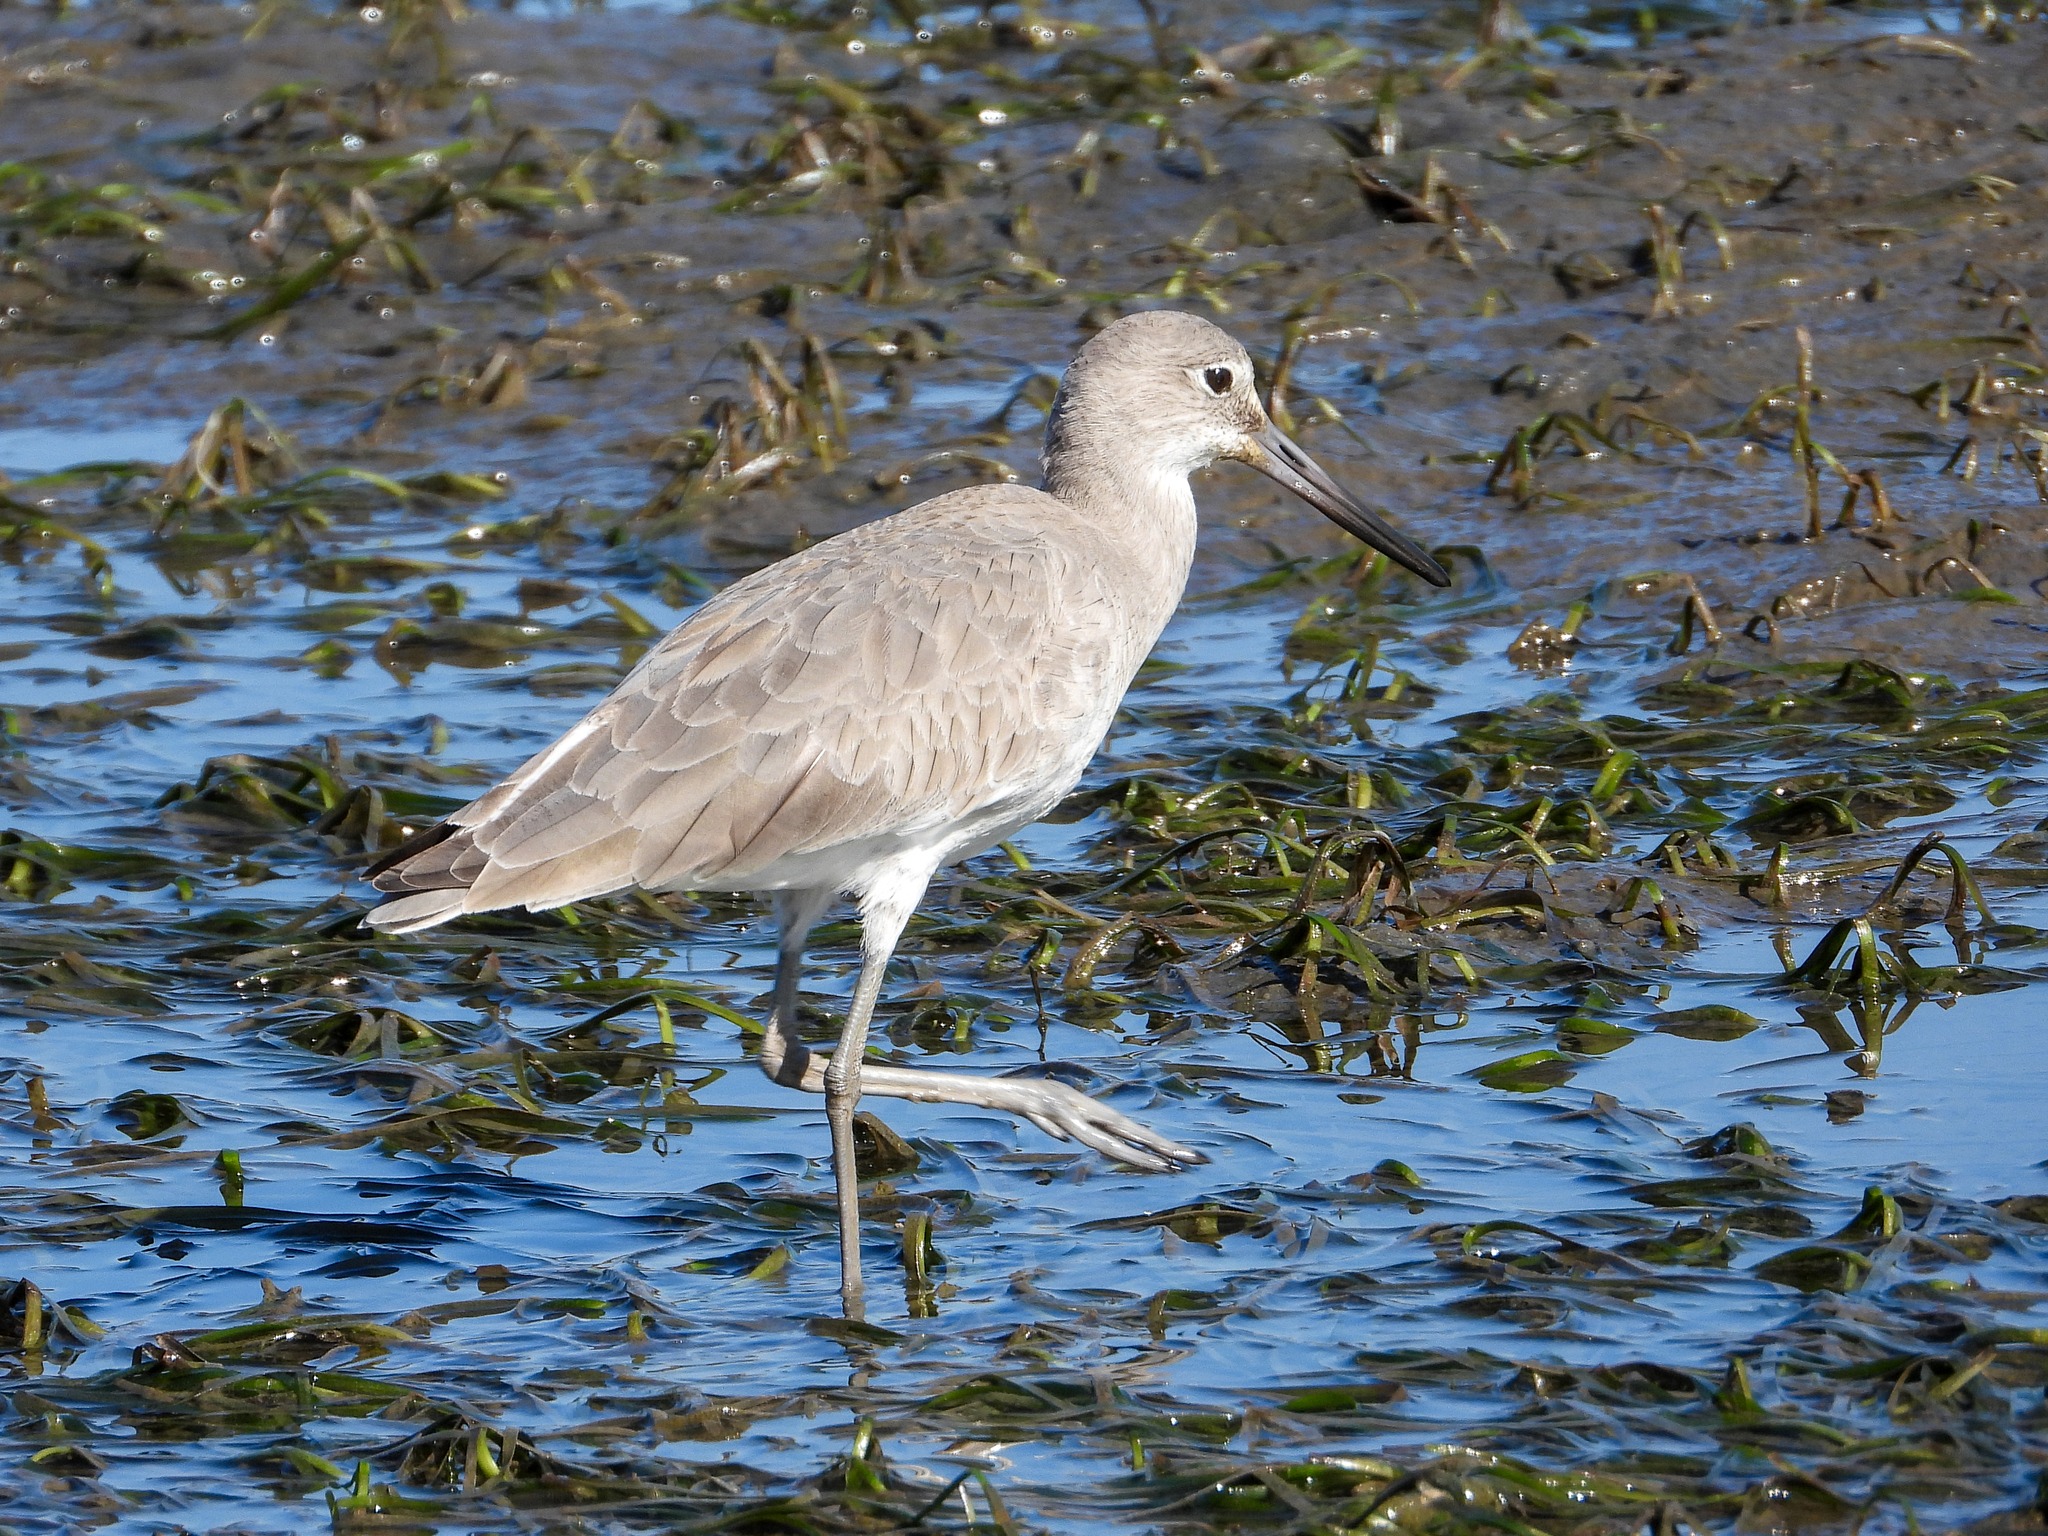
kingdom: Animalia
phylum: Chordata
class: Aves
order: Charadriiformes
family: Scolopacidae
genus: Tringa
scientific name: Tringa semipalmata
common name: Willet
